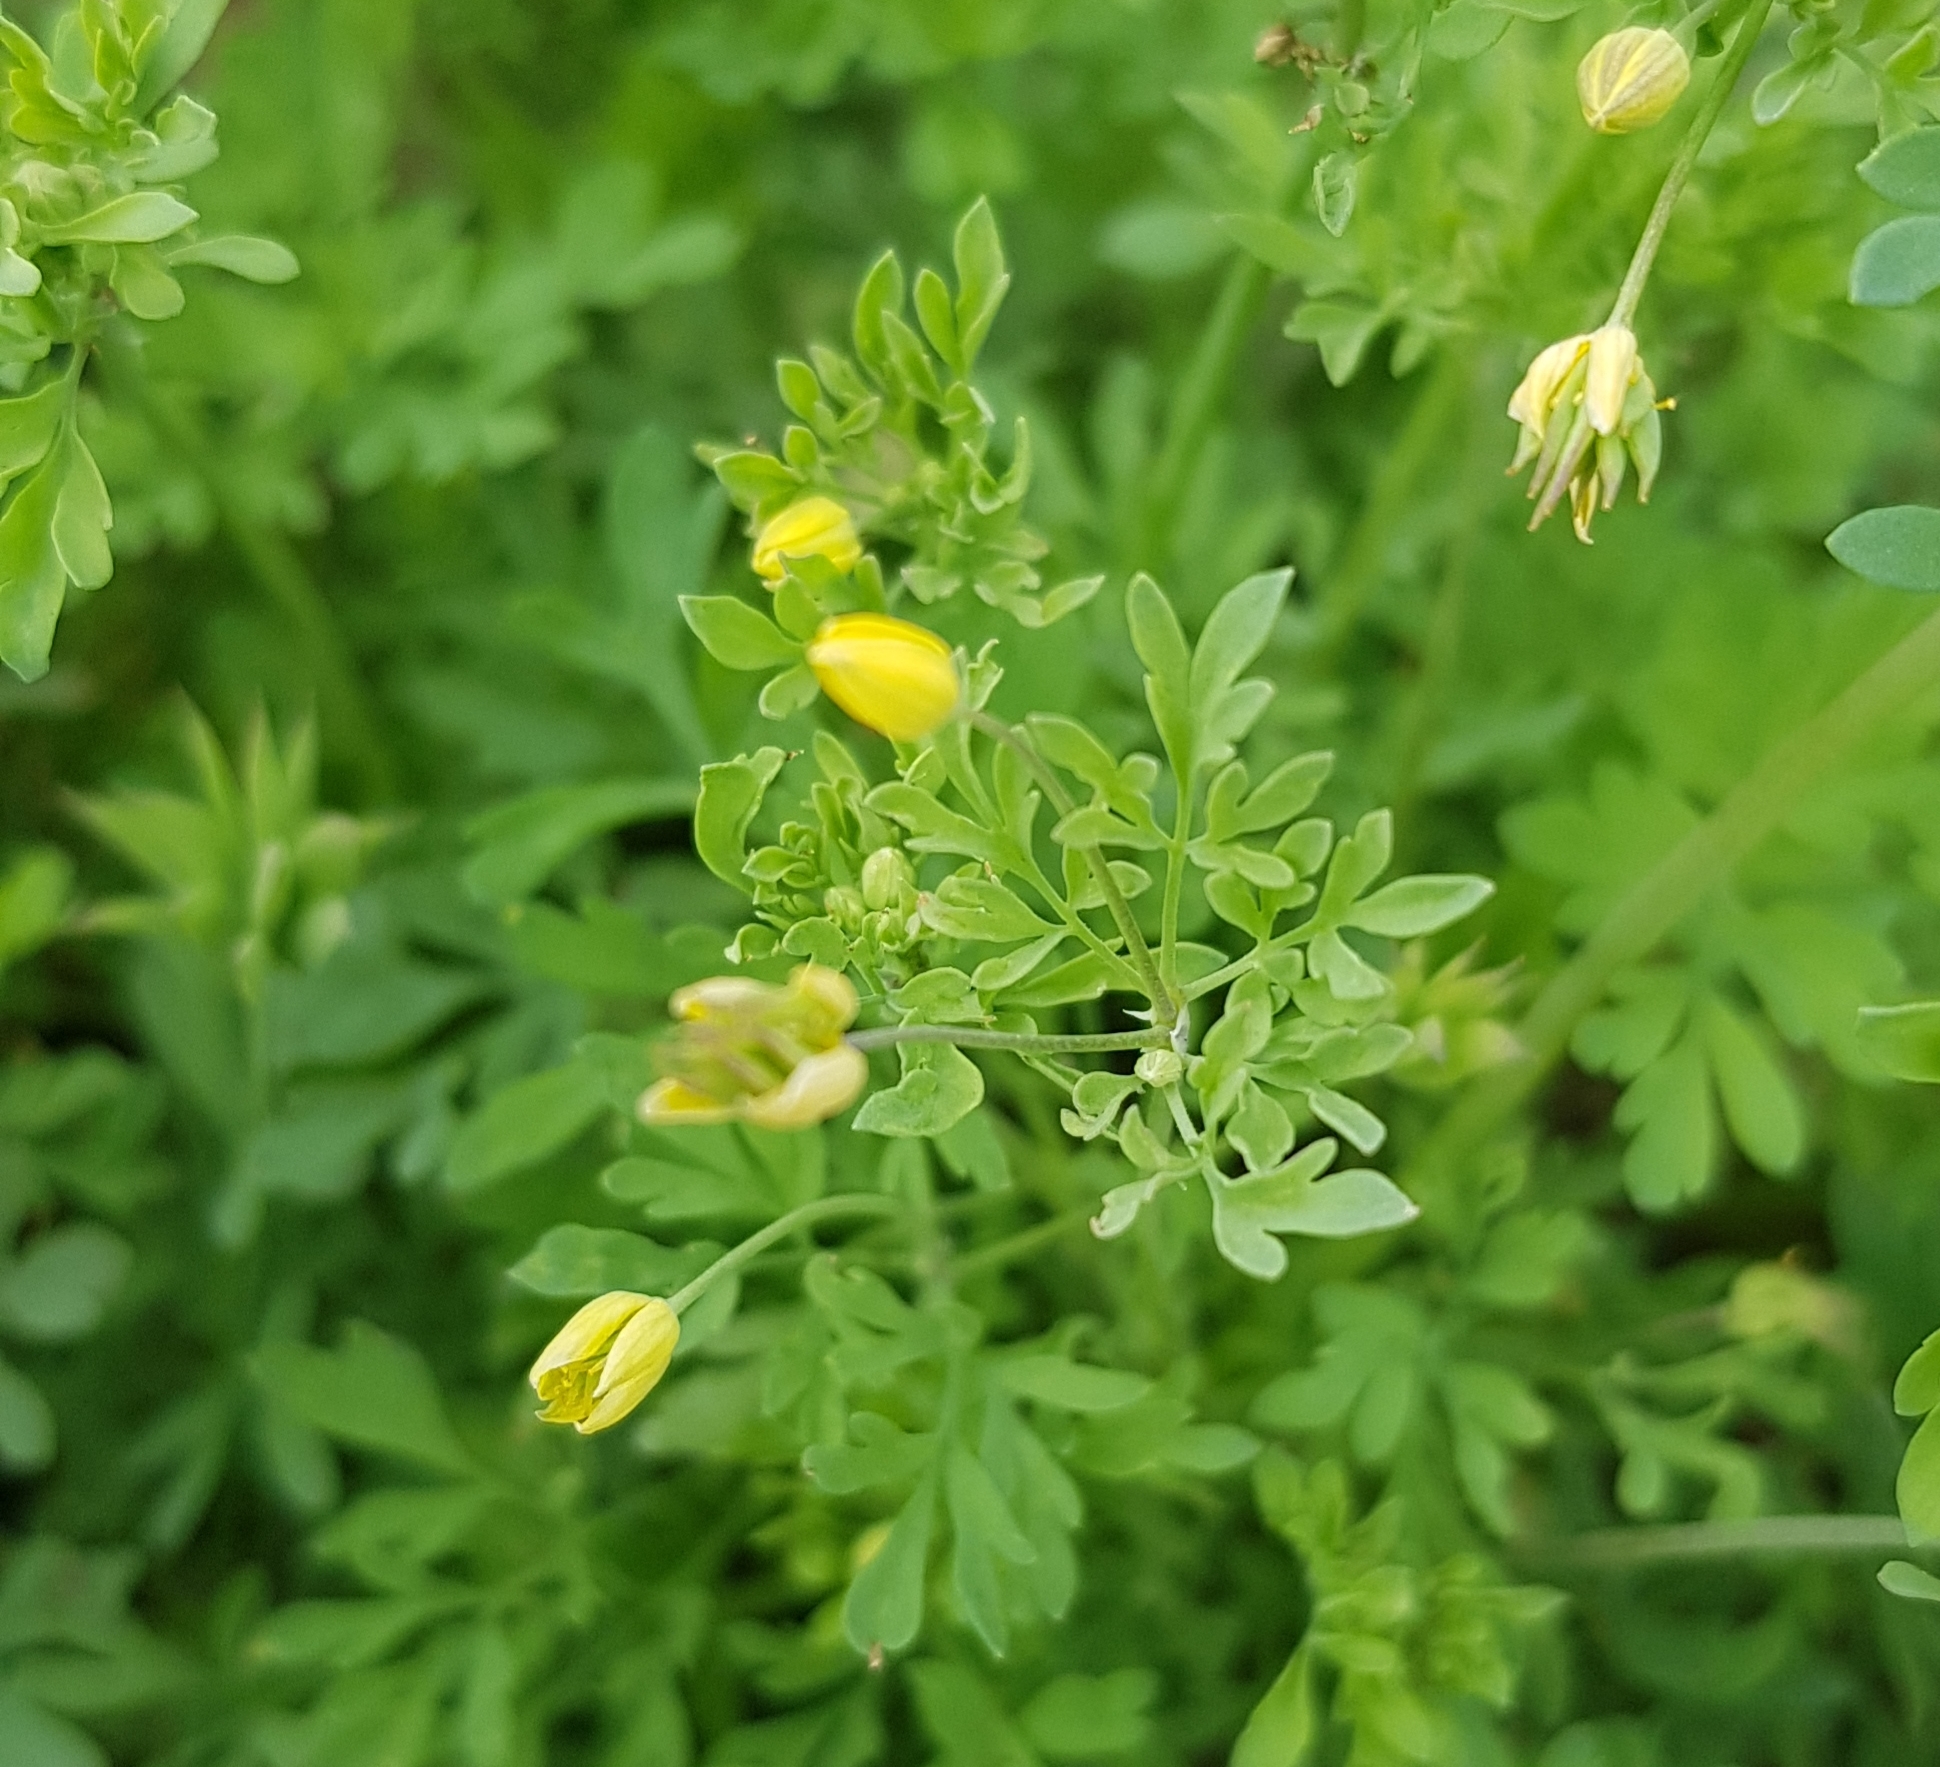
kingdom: Plantae
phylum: Tracheophyta
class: Magnoliopsida
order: Ranunculales
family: Ranunculaceae
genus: Leptopyrum
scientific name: Leptopyrum fumarioides
